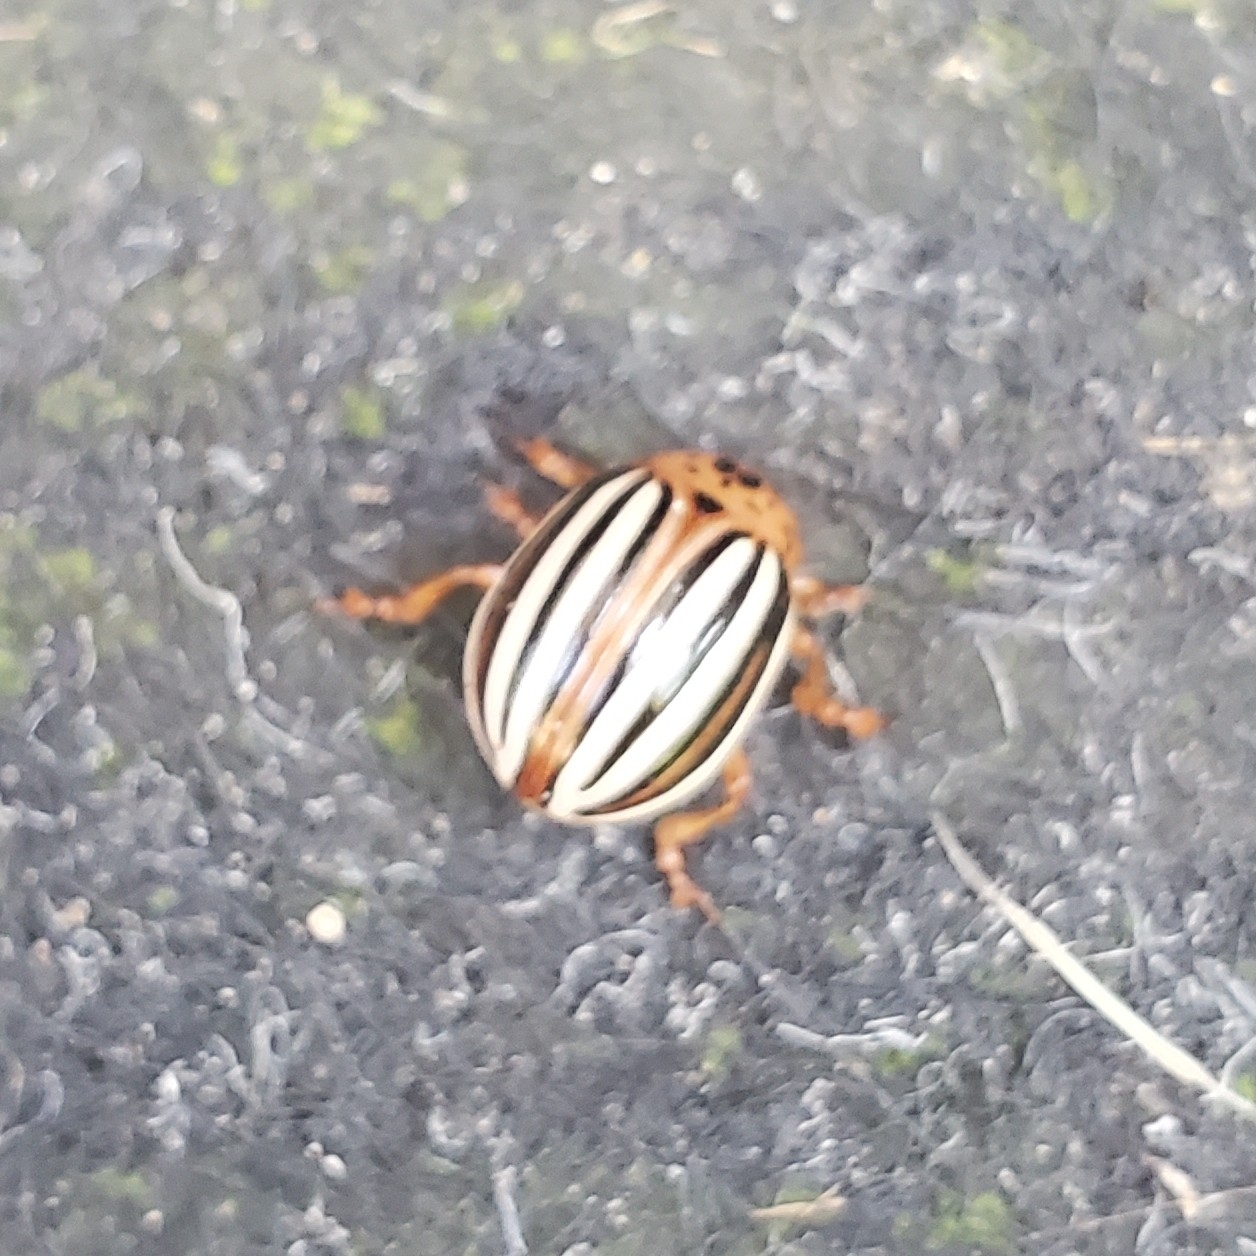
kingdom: Animalia
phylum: Arthropoda
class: Insecta
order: Coleoptera
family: Chrysomelidae
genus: Leptinotarsa
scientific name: Leptinotarsa juncta
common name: False potato beetle
